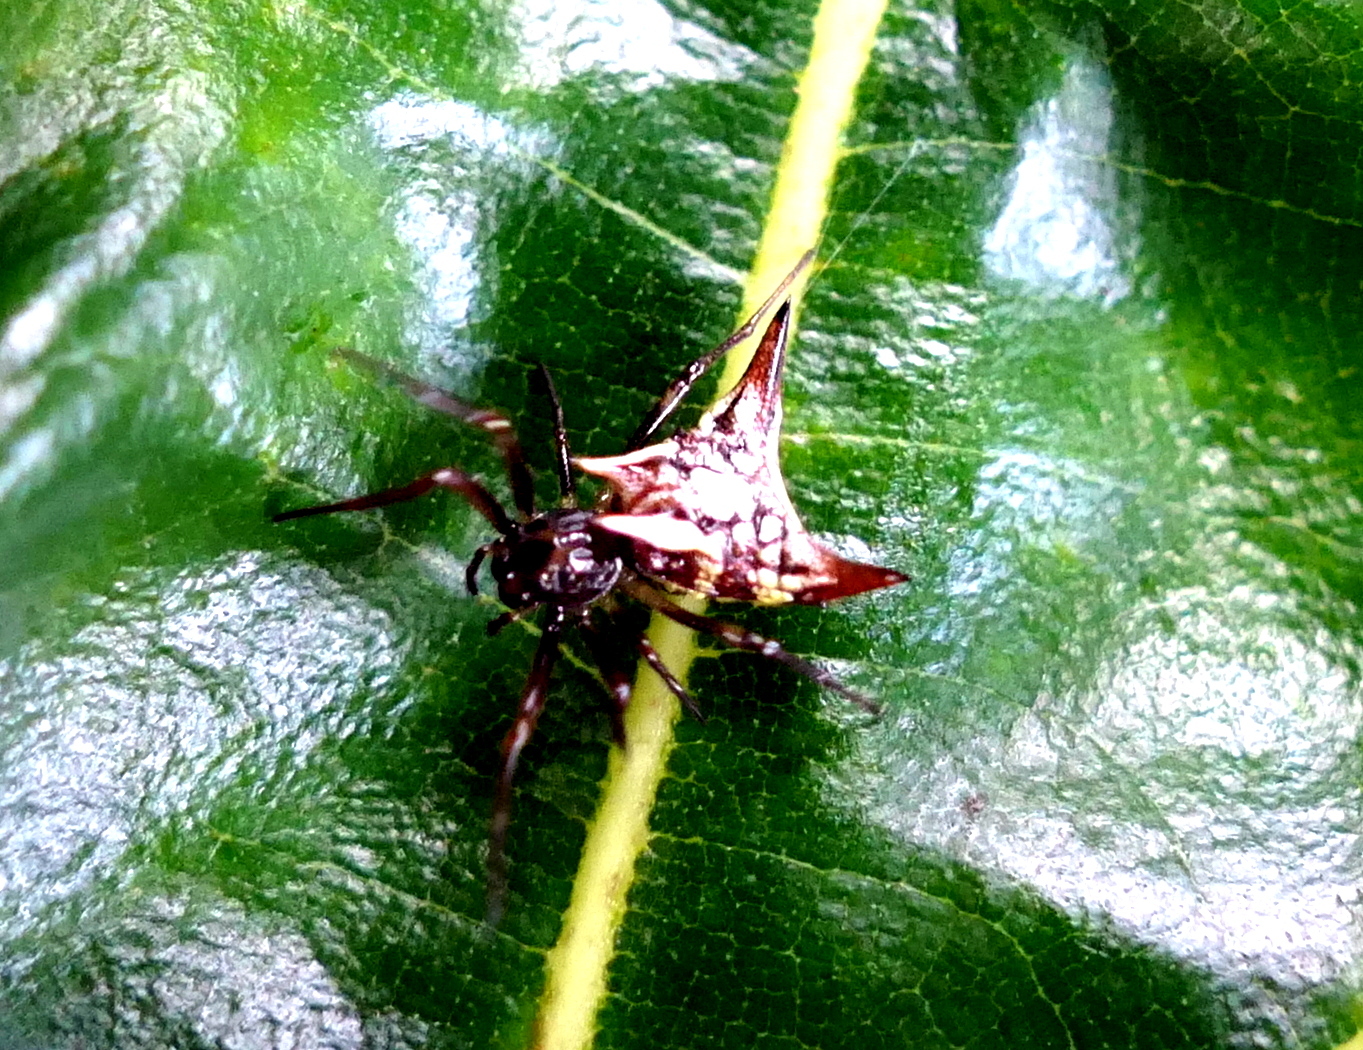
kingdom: Animalia
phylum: Arthropoda
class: Arachnida
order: Araneae
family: Araneidae
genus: Micrathena
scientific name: Micrathena evansi
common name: Orb weavers
